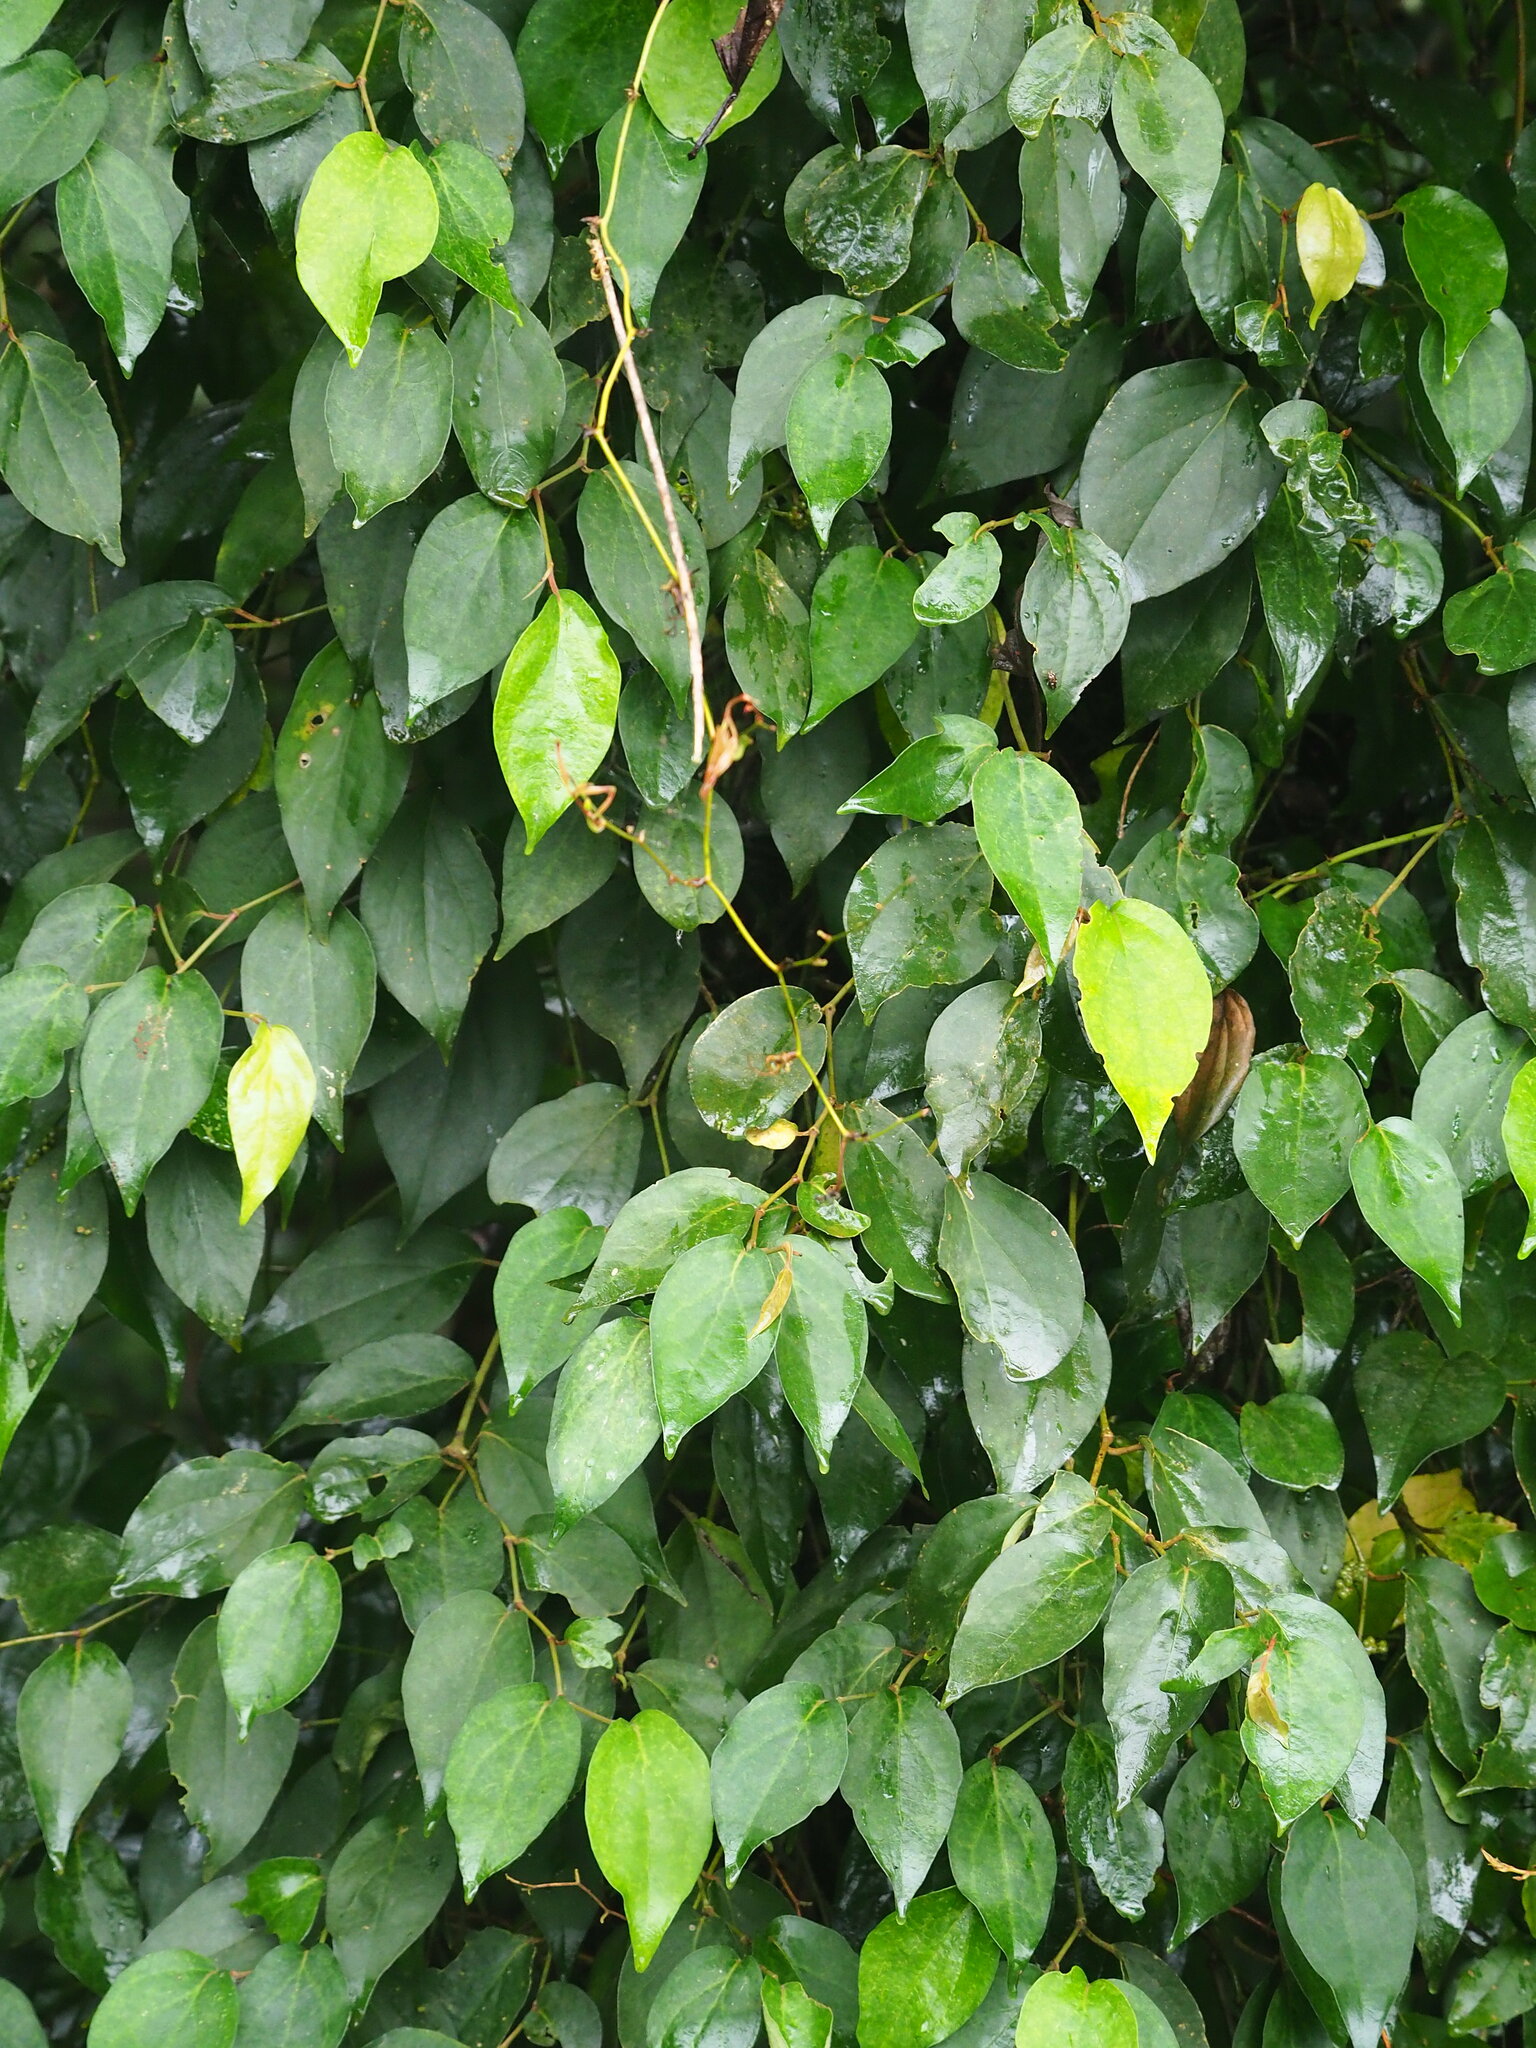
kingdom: Plantae
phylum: Tracheophyta
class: Magnoliopsida
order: Piperales
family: Piperaceae
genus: Piper
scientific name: Piper kadsura
